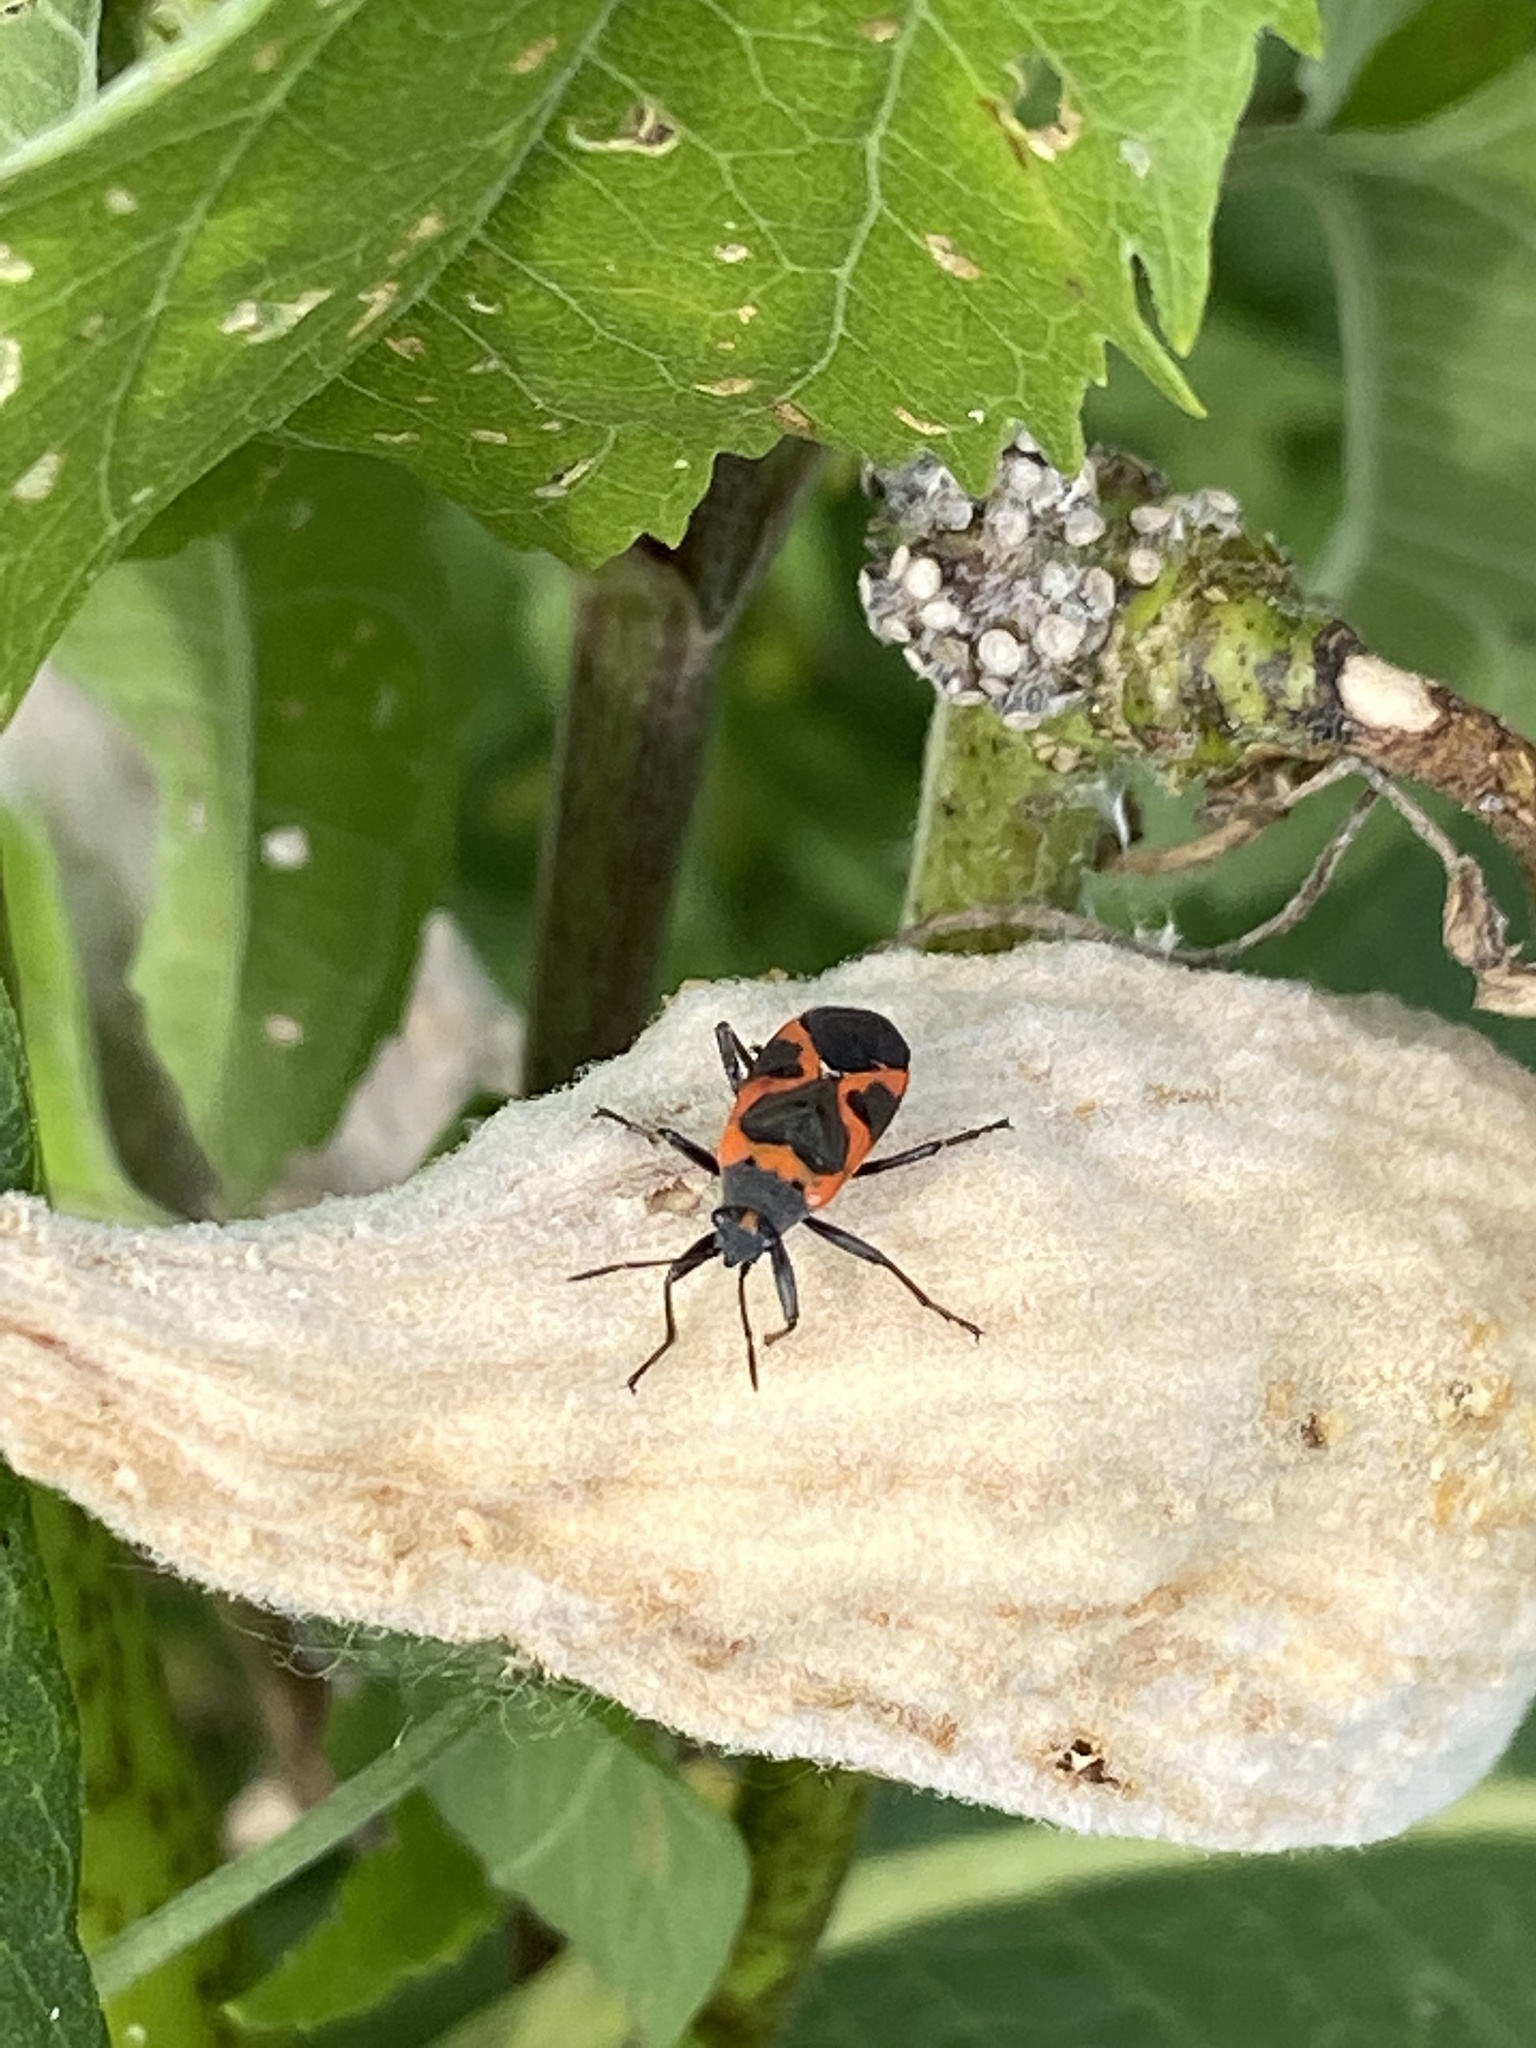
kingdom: Animalia
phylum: Arthropoda
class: Insecta
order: Hemiptera
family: Lygaeidae
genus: Lygaeus
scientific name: Lygaeus kalmii
